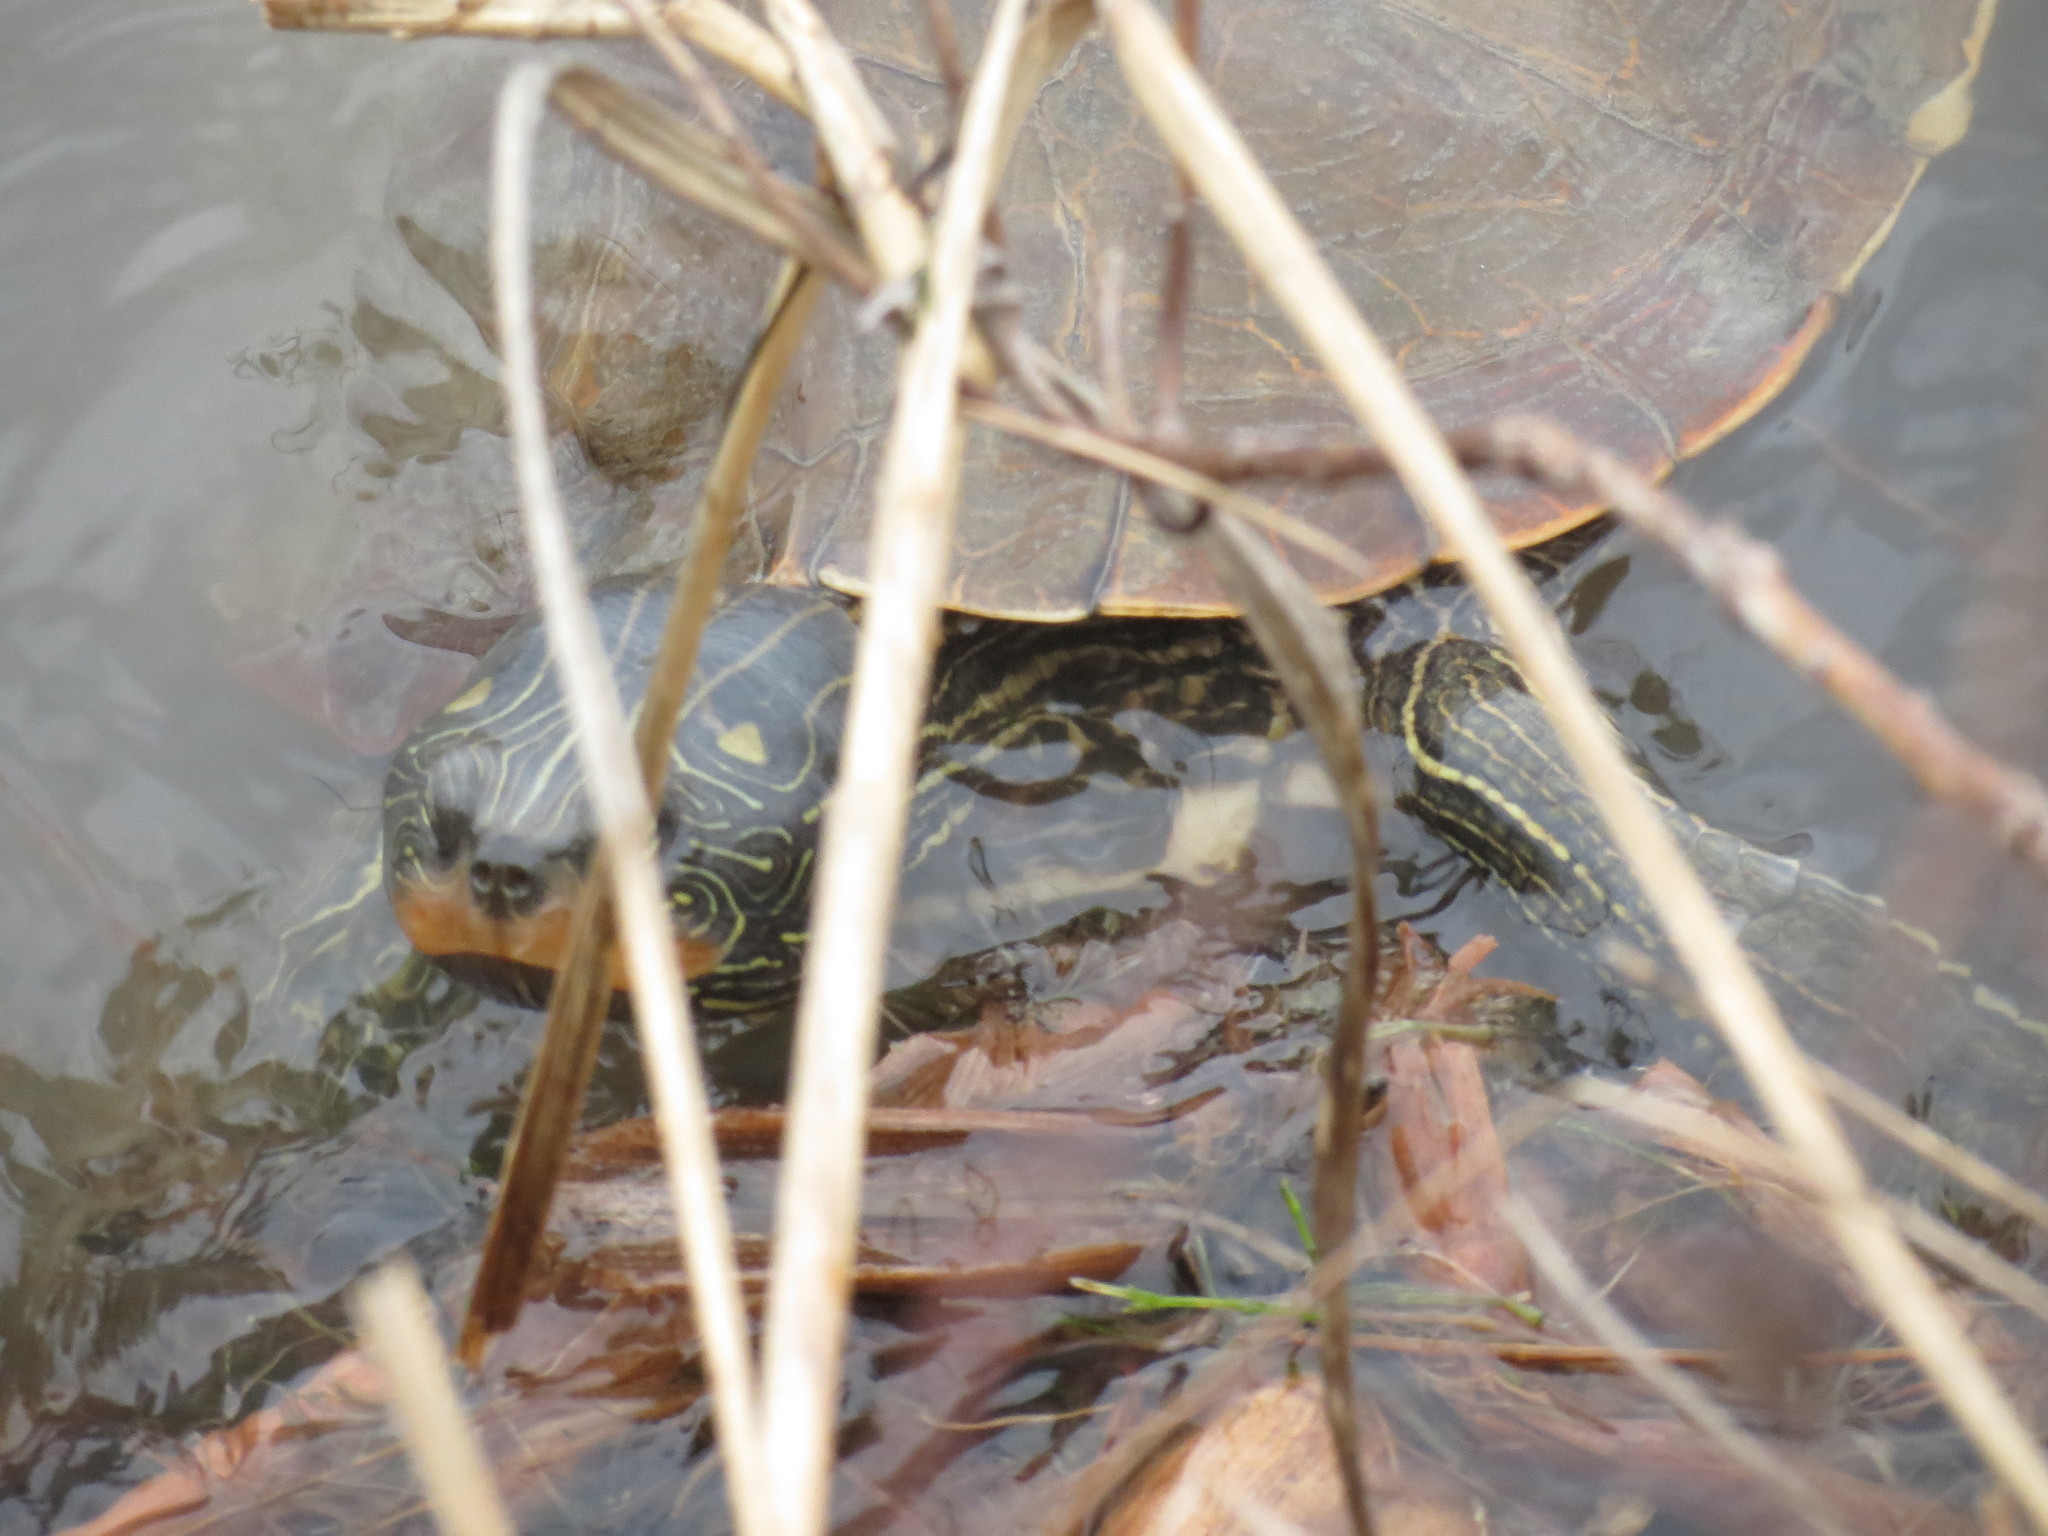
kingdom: Animalia
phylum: Chordata
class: Testudines
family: Emydidae
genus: Graptemys
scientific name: Graptemys geographica
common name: Common map turtle
